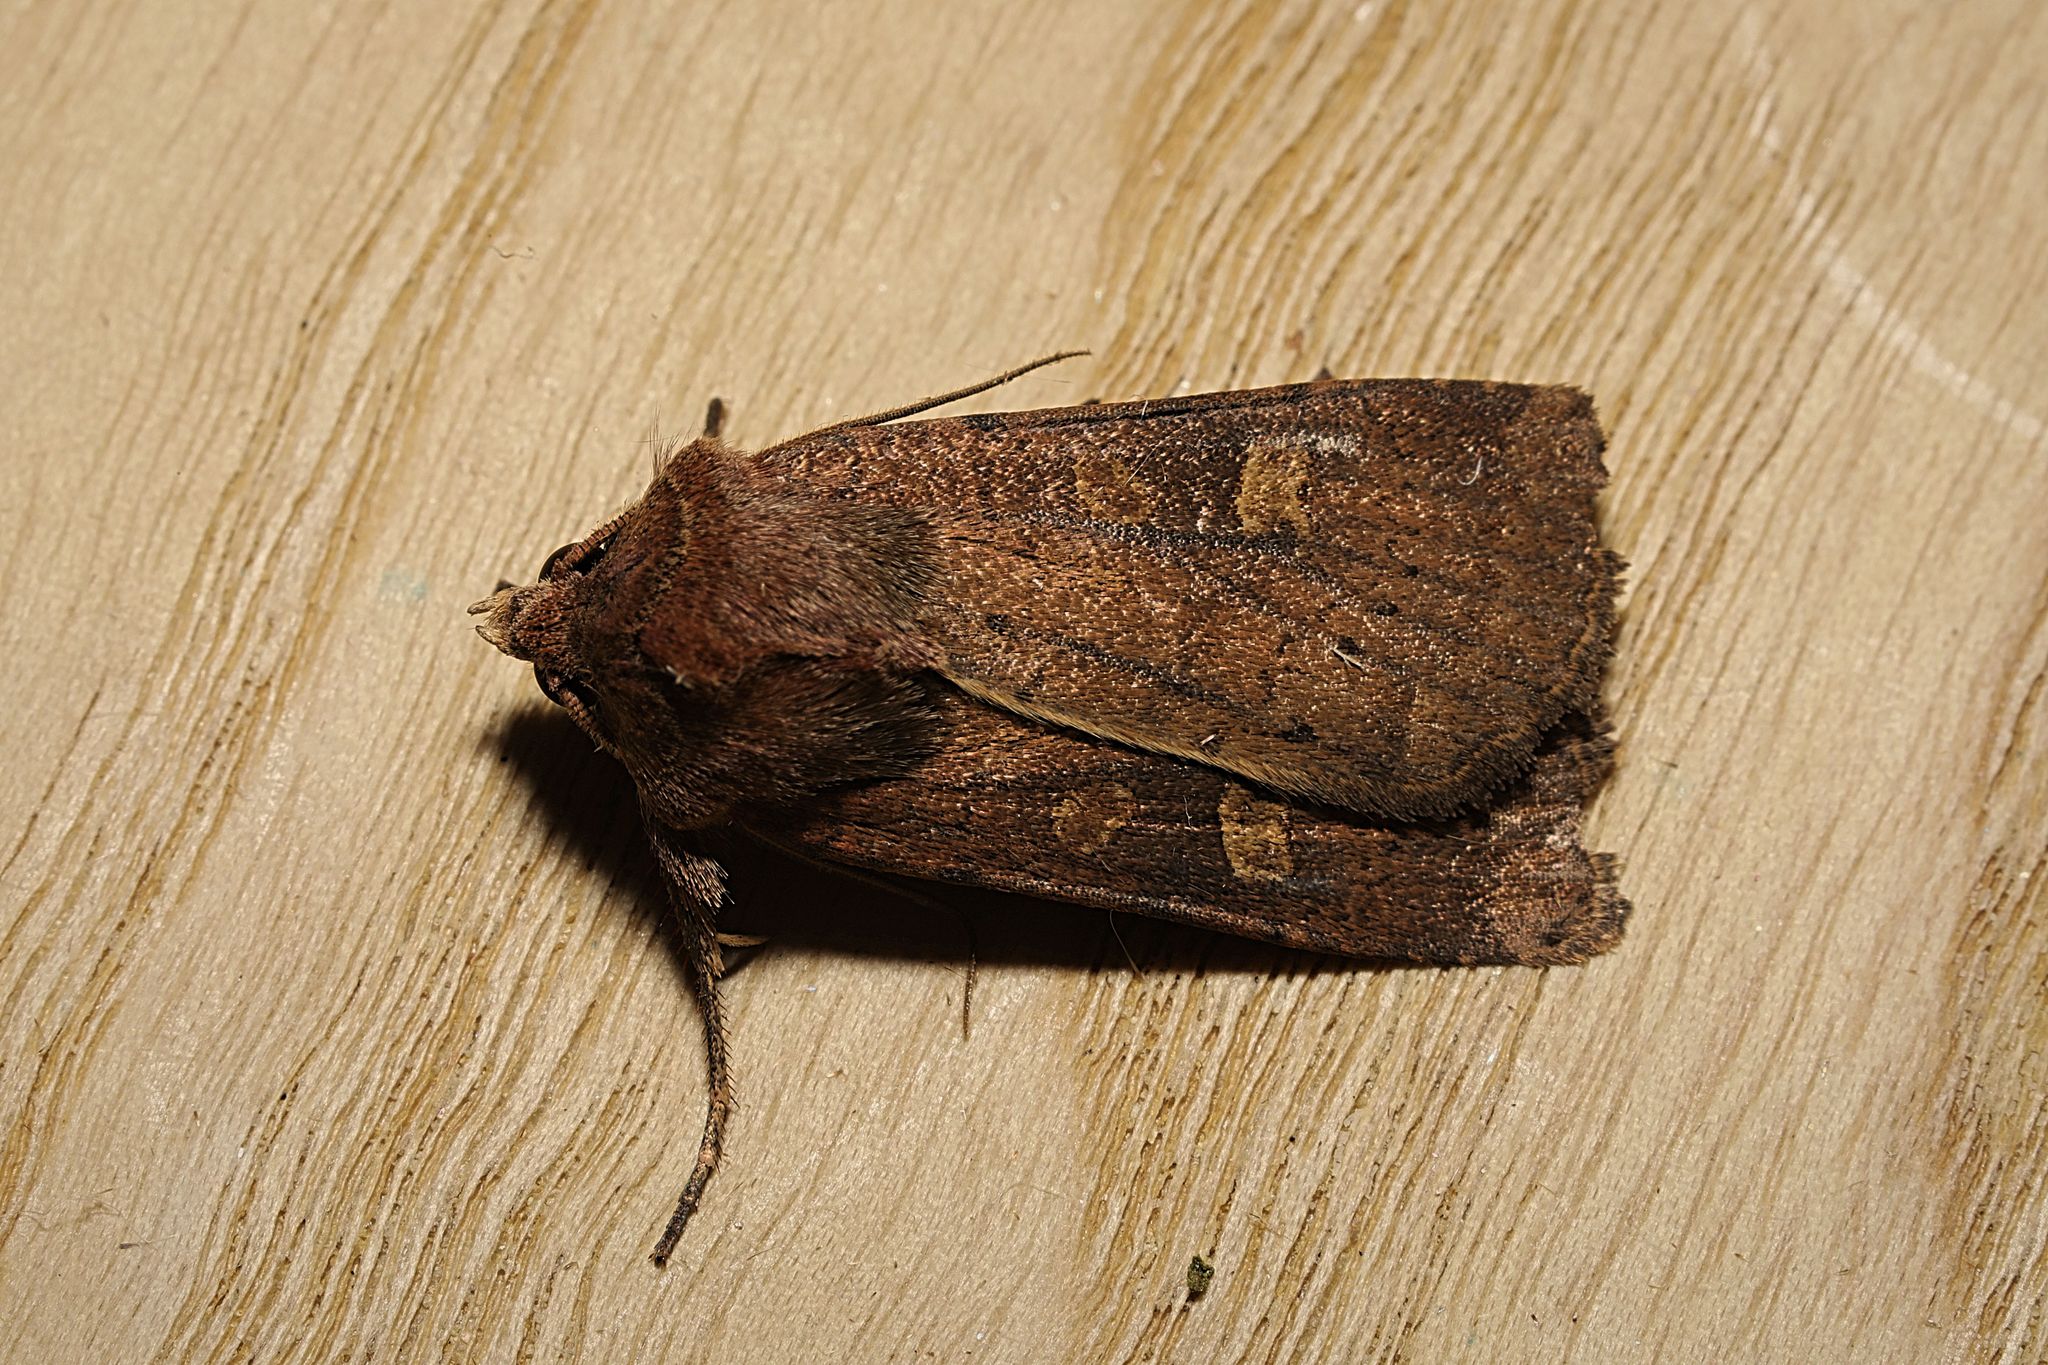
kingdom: Animalia
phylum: Arthropoda
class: Insecta
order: Lepidoptera
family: Noctuidae
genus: Xestia
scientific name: Xestia xanthographa
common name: Square-spot rustic
